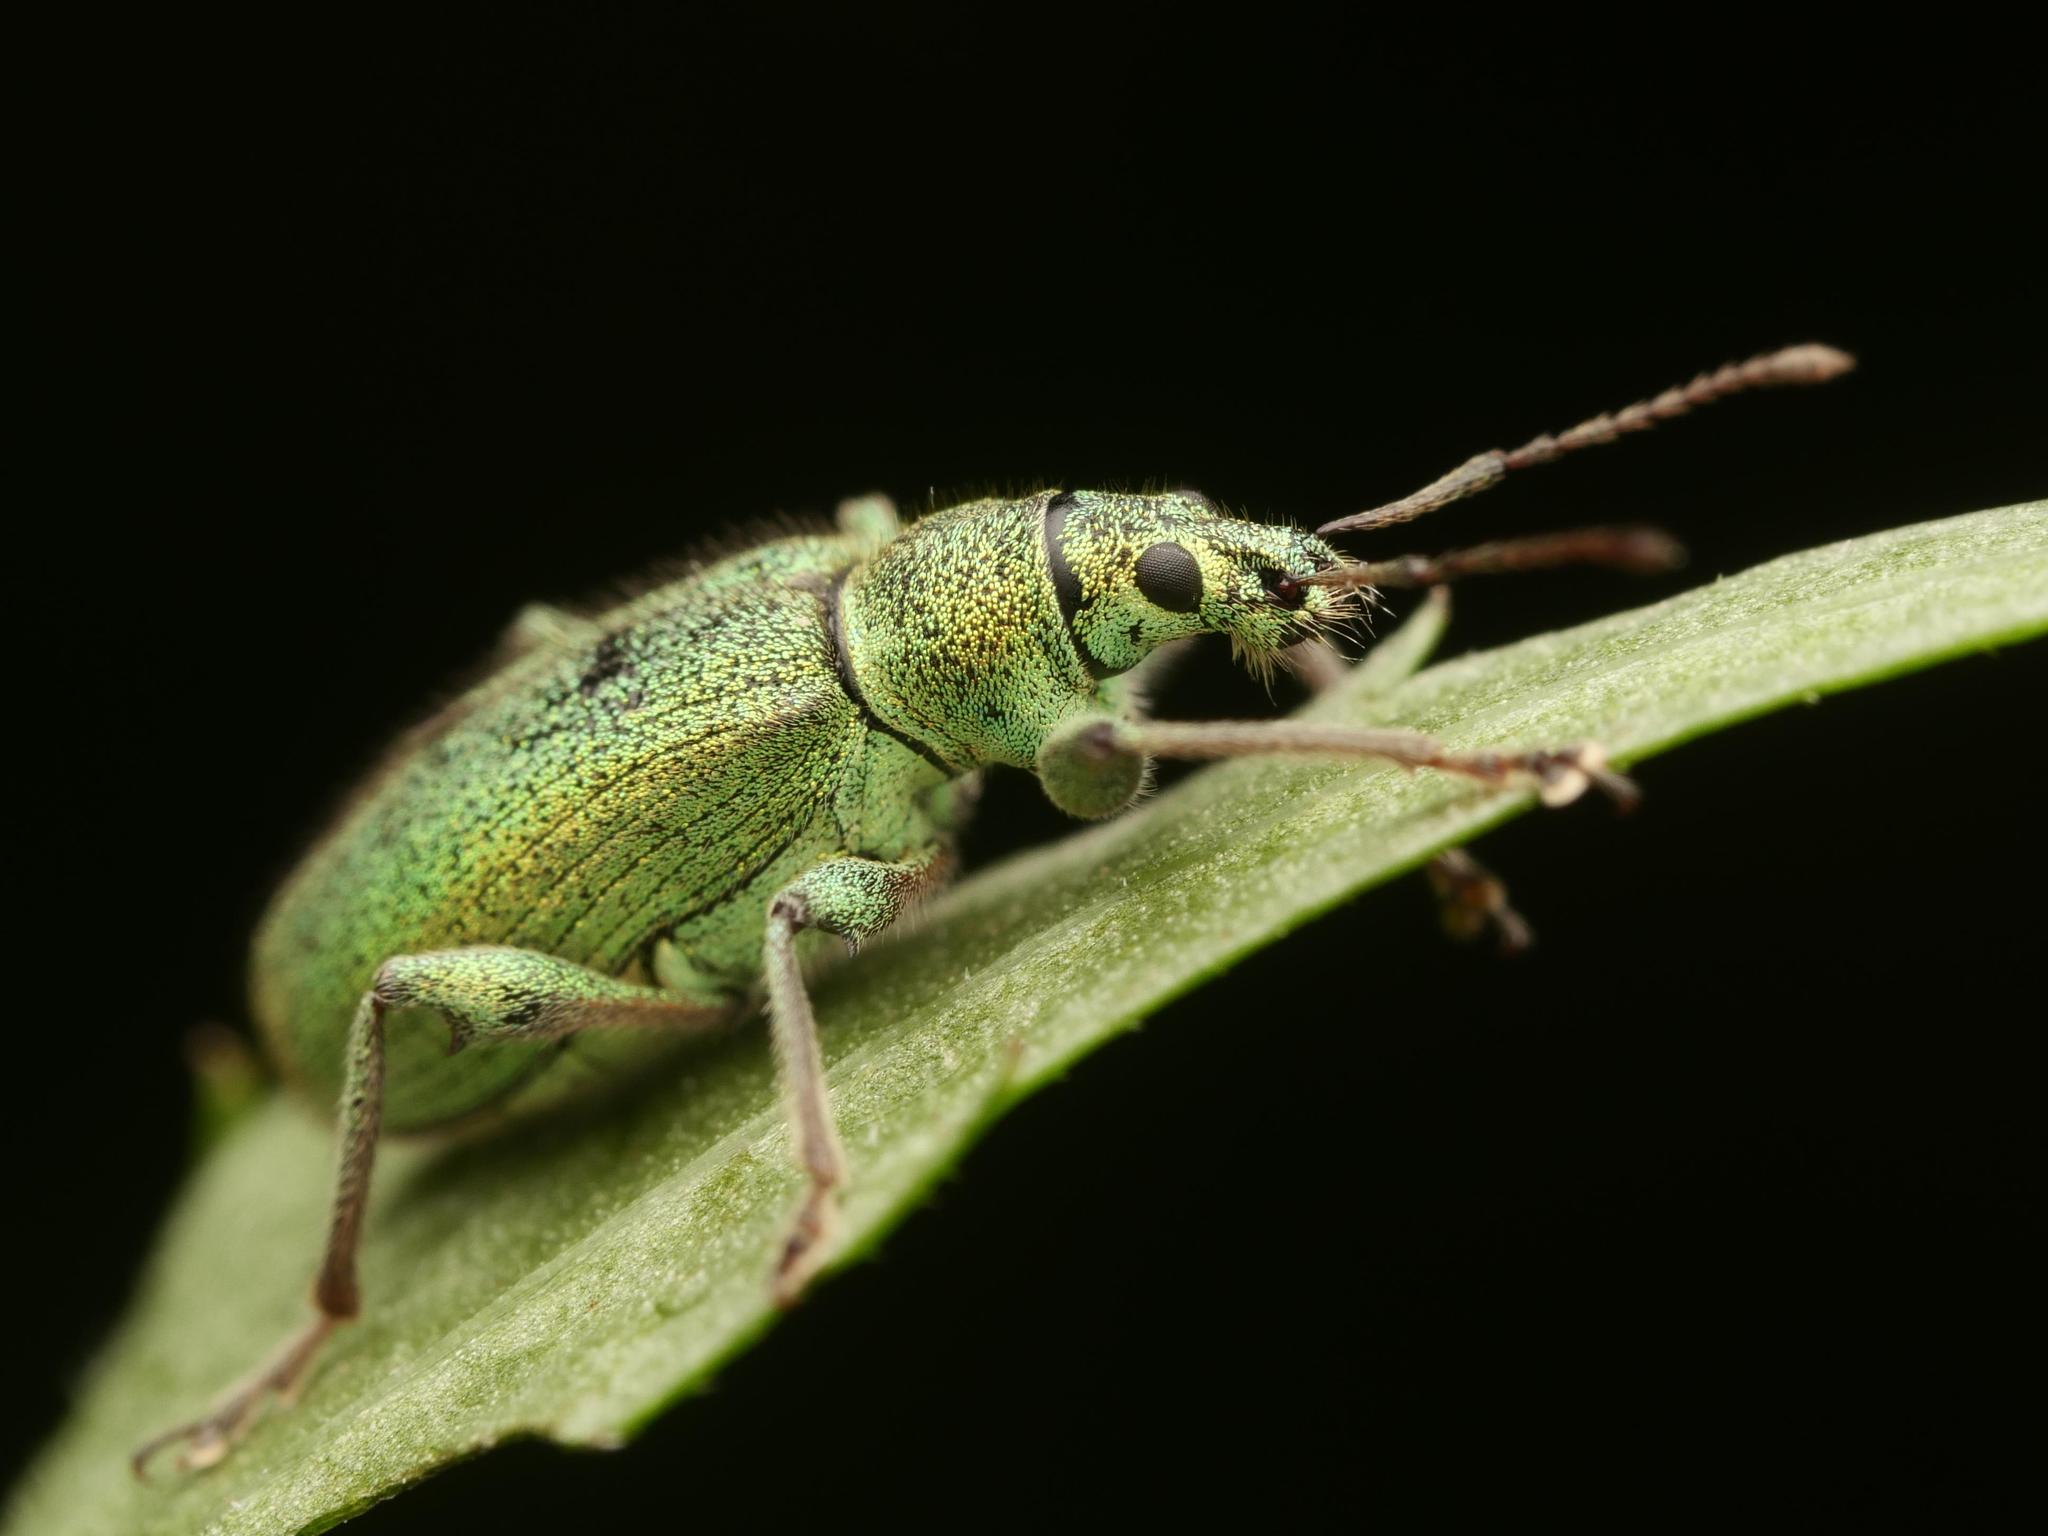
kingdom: Animalia
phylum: Arthropoda
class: Insecta
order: Coleoptera
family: Curculionidae
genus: Phyllobius
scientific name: Phyllobius arborator
